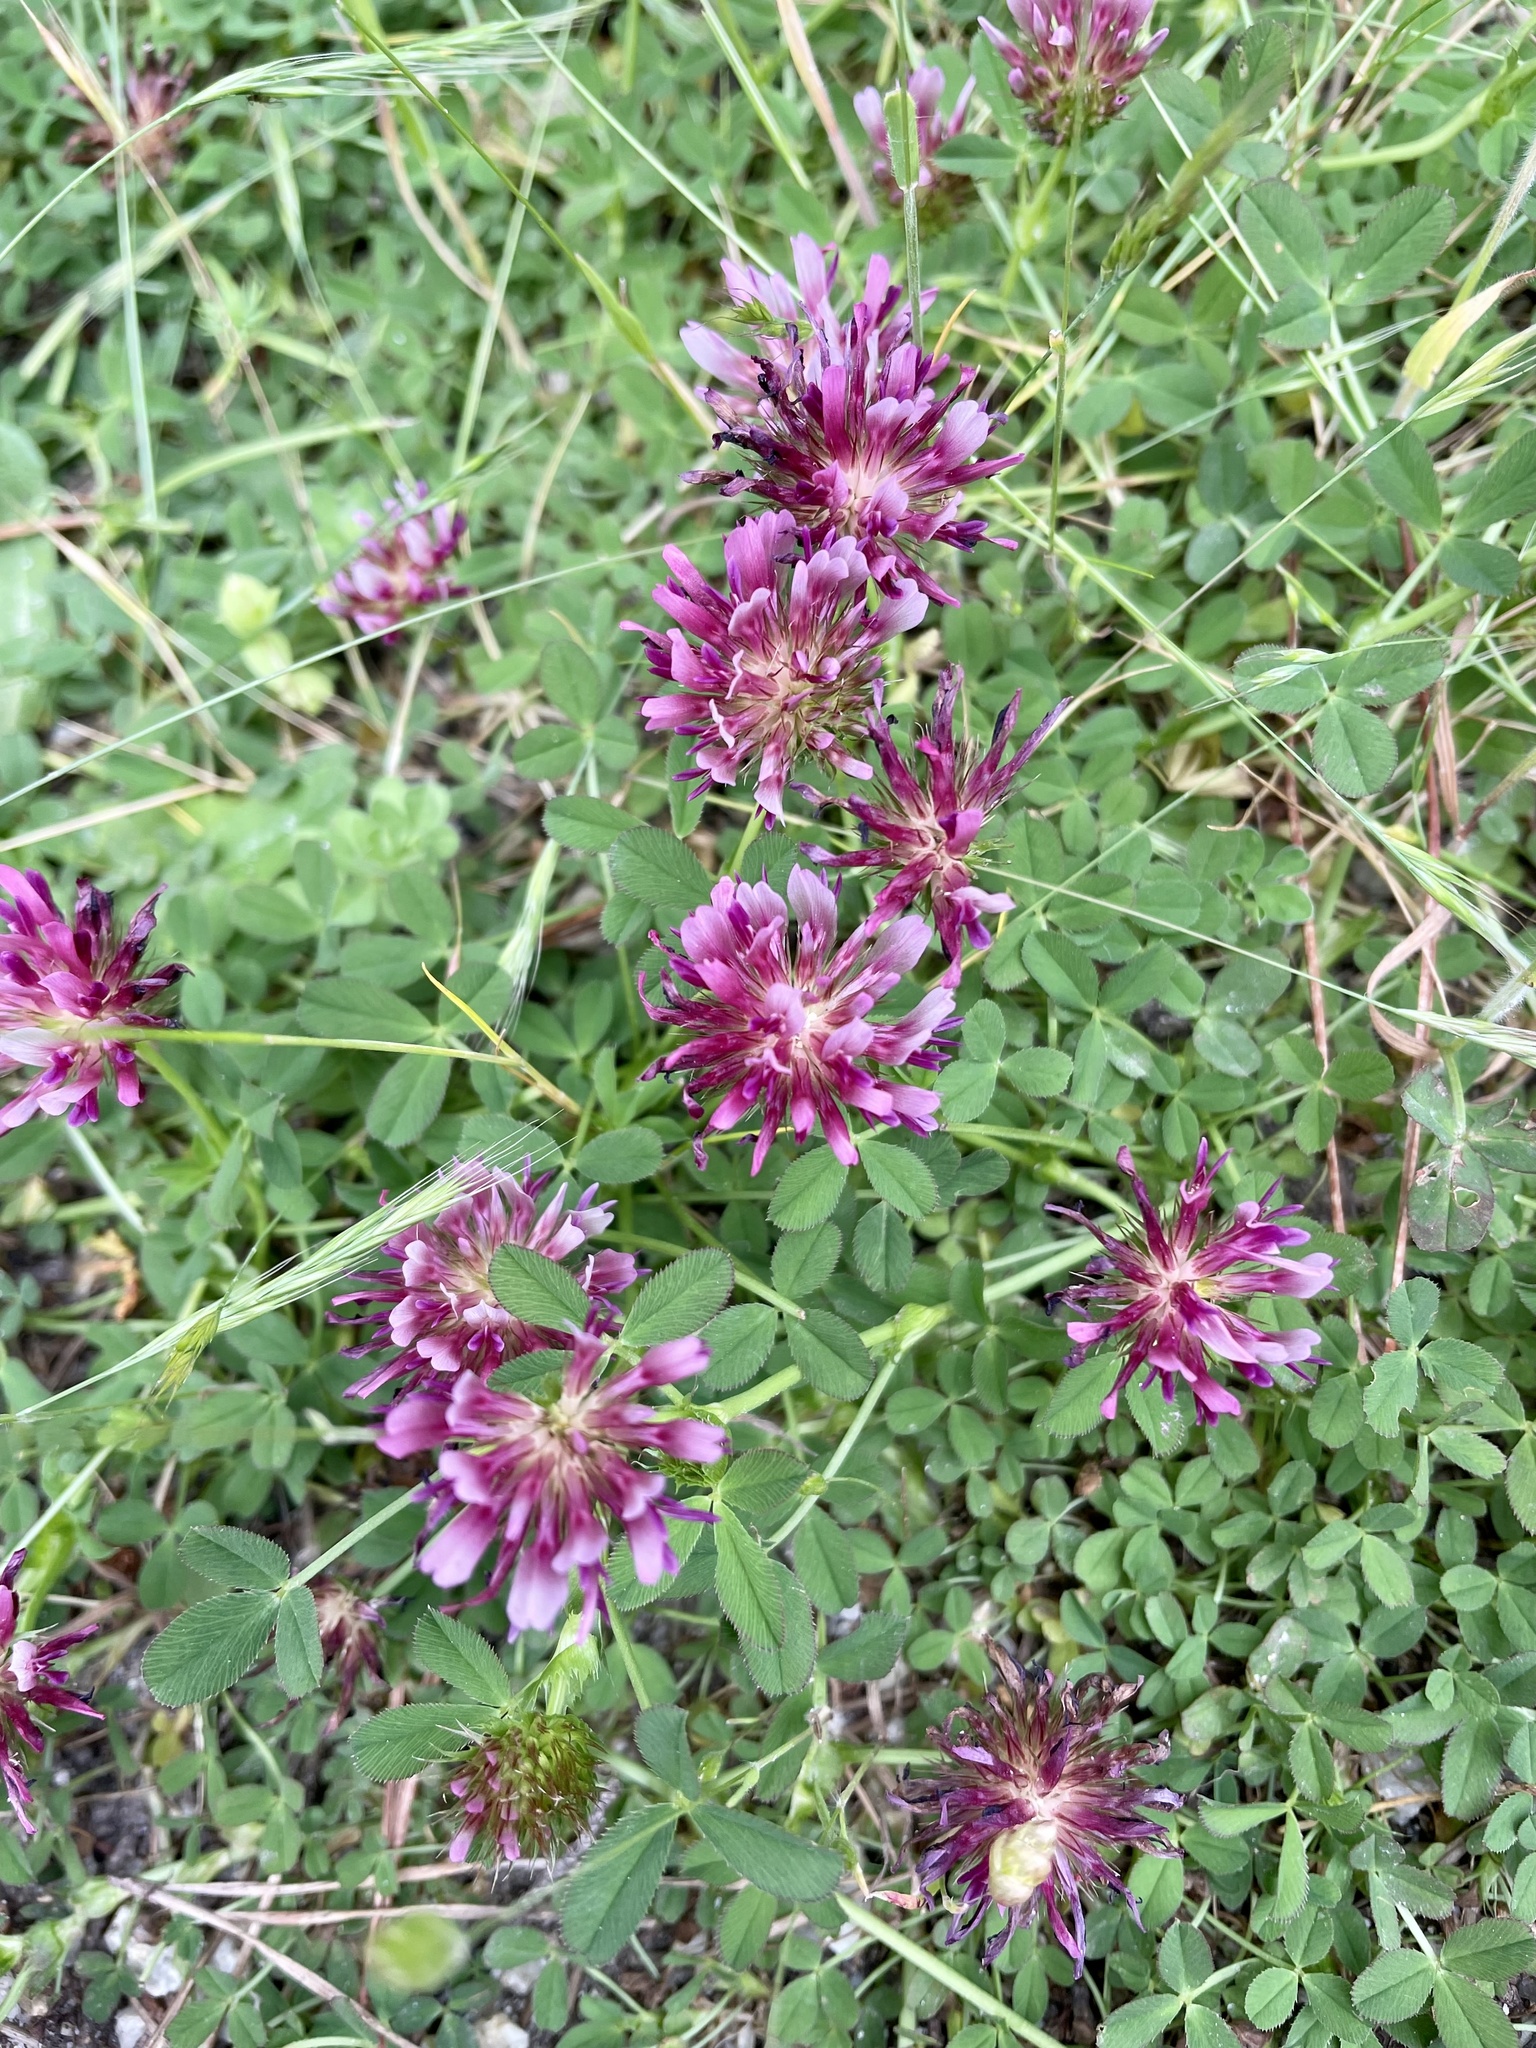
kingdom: Plantae
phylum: Tracheophyta
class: Magnoliopsida
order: Fabales
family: Fabaceae
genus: Trifolium
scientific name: Trifolium wormskioldii
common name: Springbank clover
